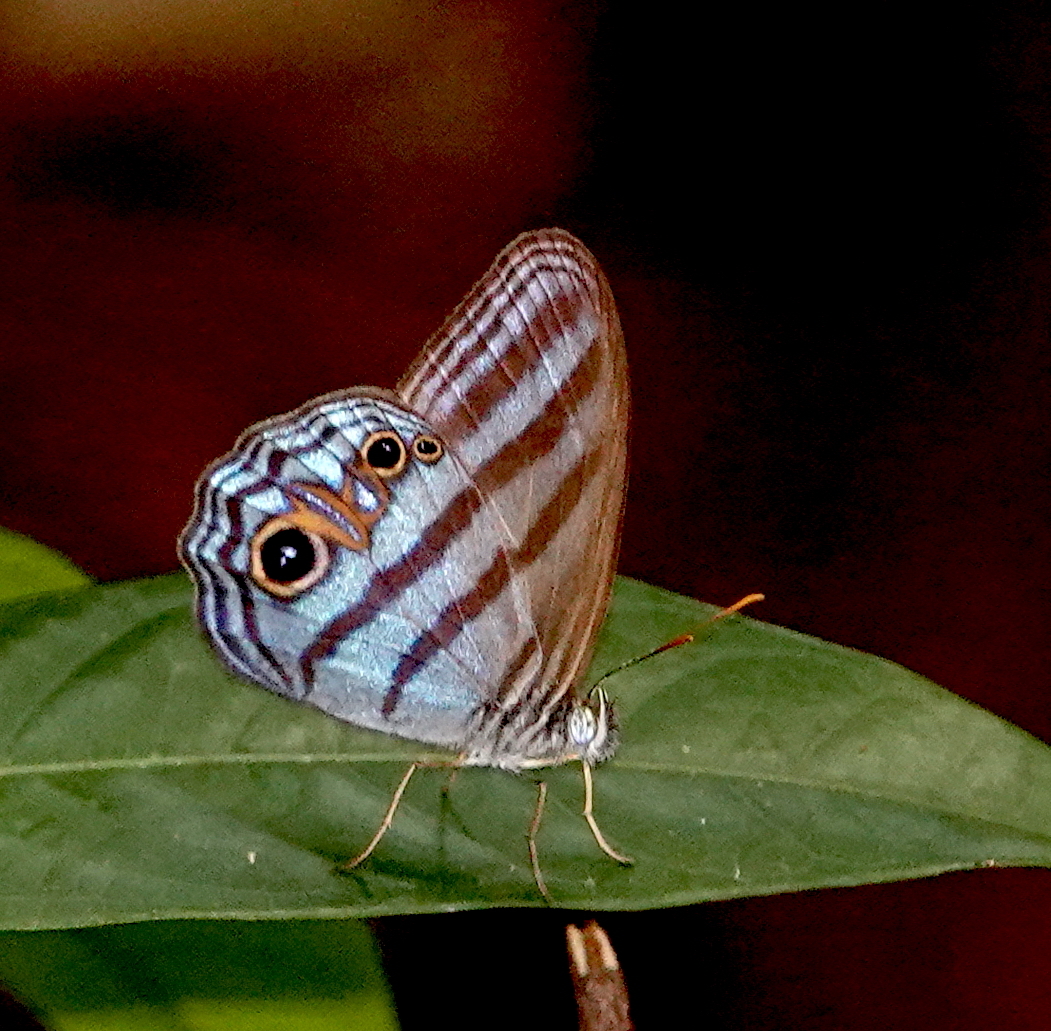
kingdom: Animalia
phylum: Arthropoda
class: Insecta
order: Lepidoptera
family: Nymphalidae
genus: Chloreuptychia
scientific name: Chloreuptychia chloris
